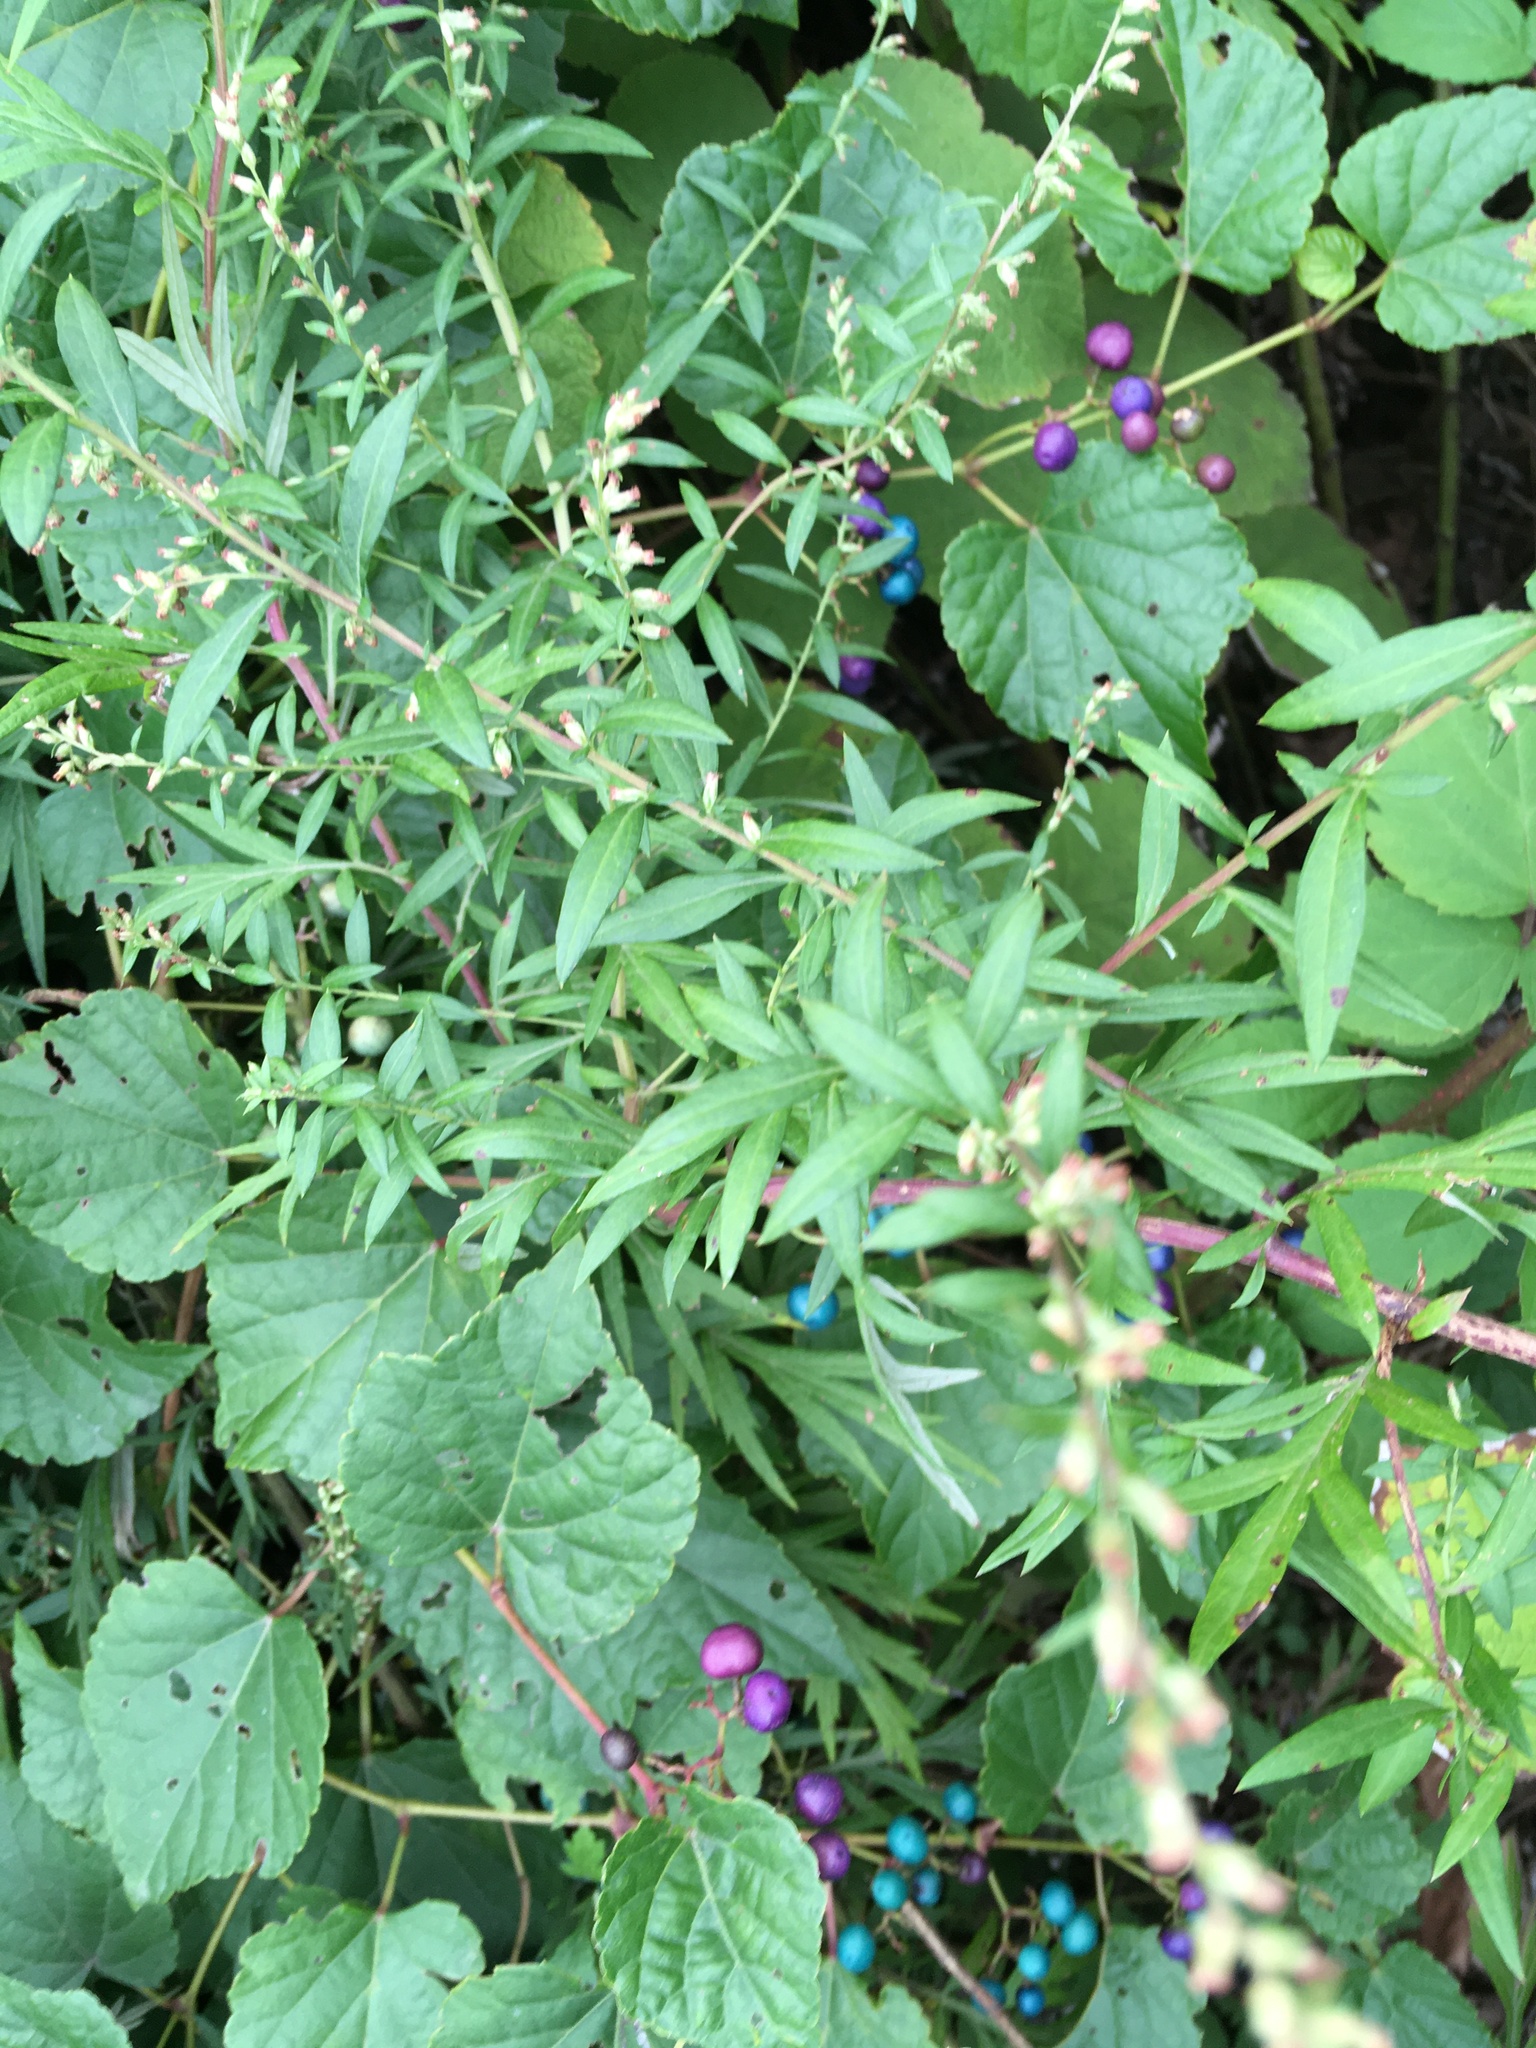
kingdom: Plantae
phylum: Tracheophyta
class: Magnoliopsida
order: Asterales
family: Asteraceae
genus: Artemisia
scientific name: Artemisia vulgaris
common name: Mugwort
